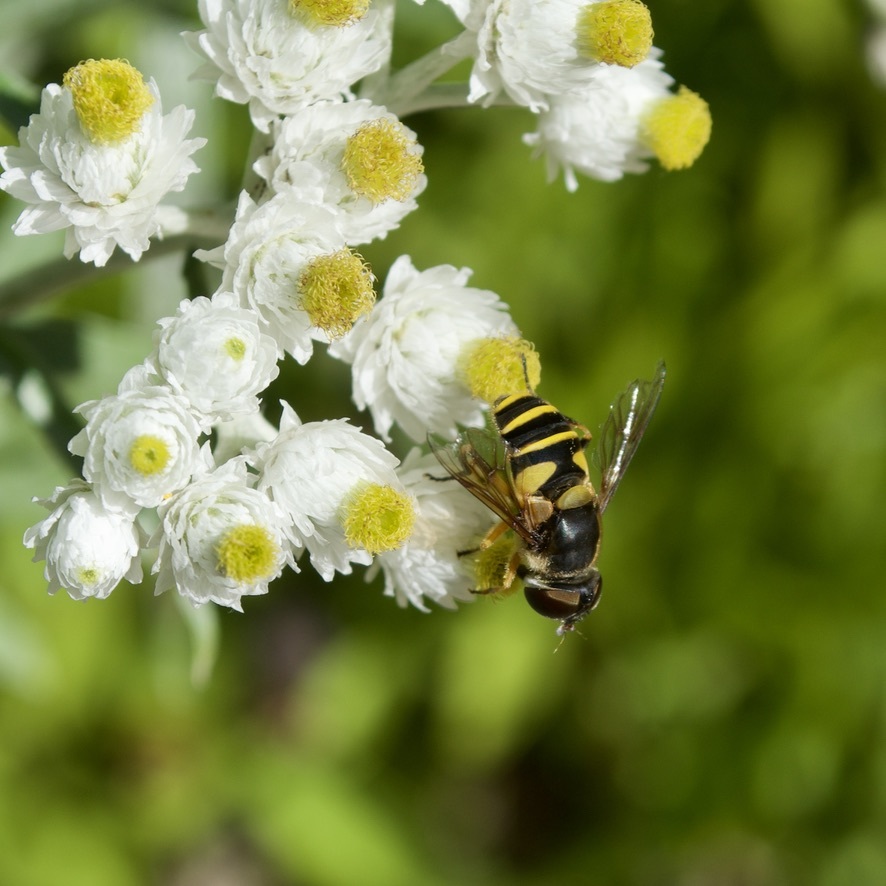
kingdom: Animalia
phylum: Arthropoda
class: Insecta
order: Diptera
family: Syrphidae
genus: Eristalis
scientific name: Eristalis transversa
